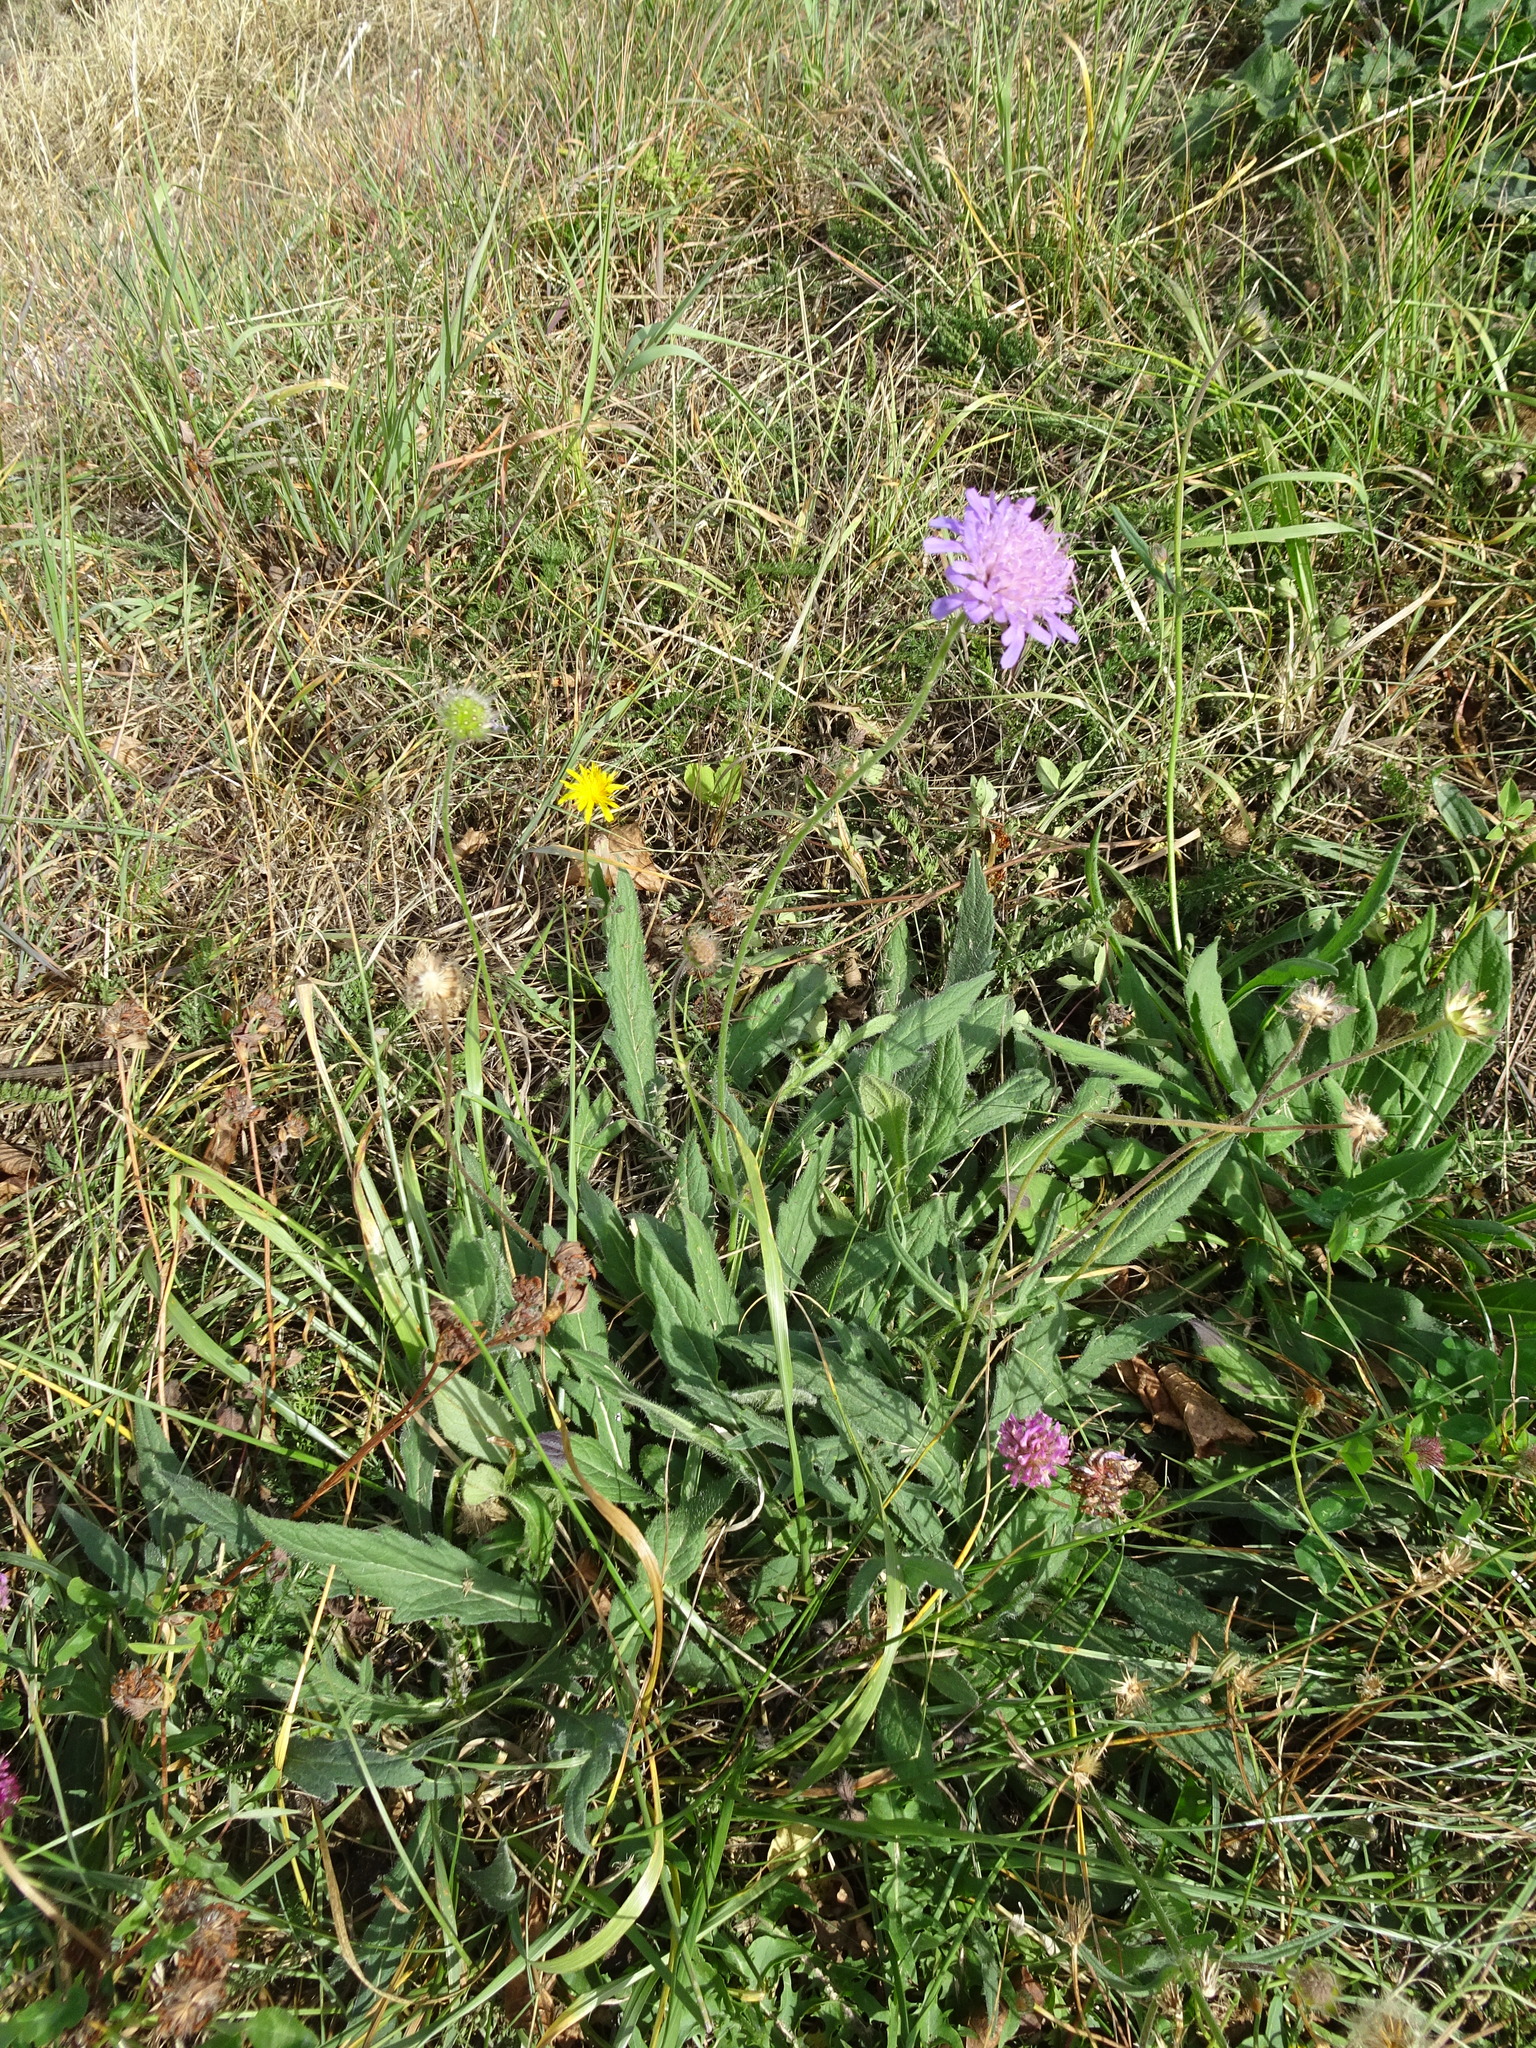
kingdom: Plantae
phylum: Tracheophyta
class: Magnoliopsida
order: Dipsacales
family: Caprifoliaceae
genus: Knautia
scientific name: Knautia arvensis
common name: Field scabiosa
